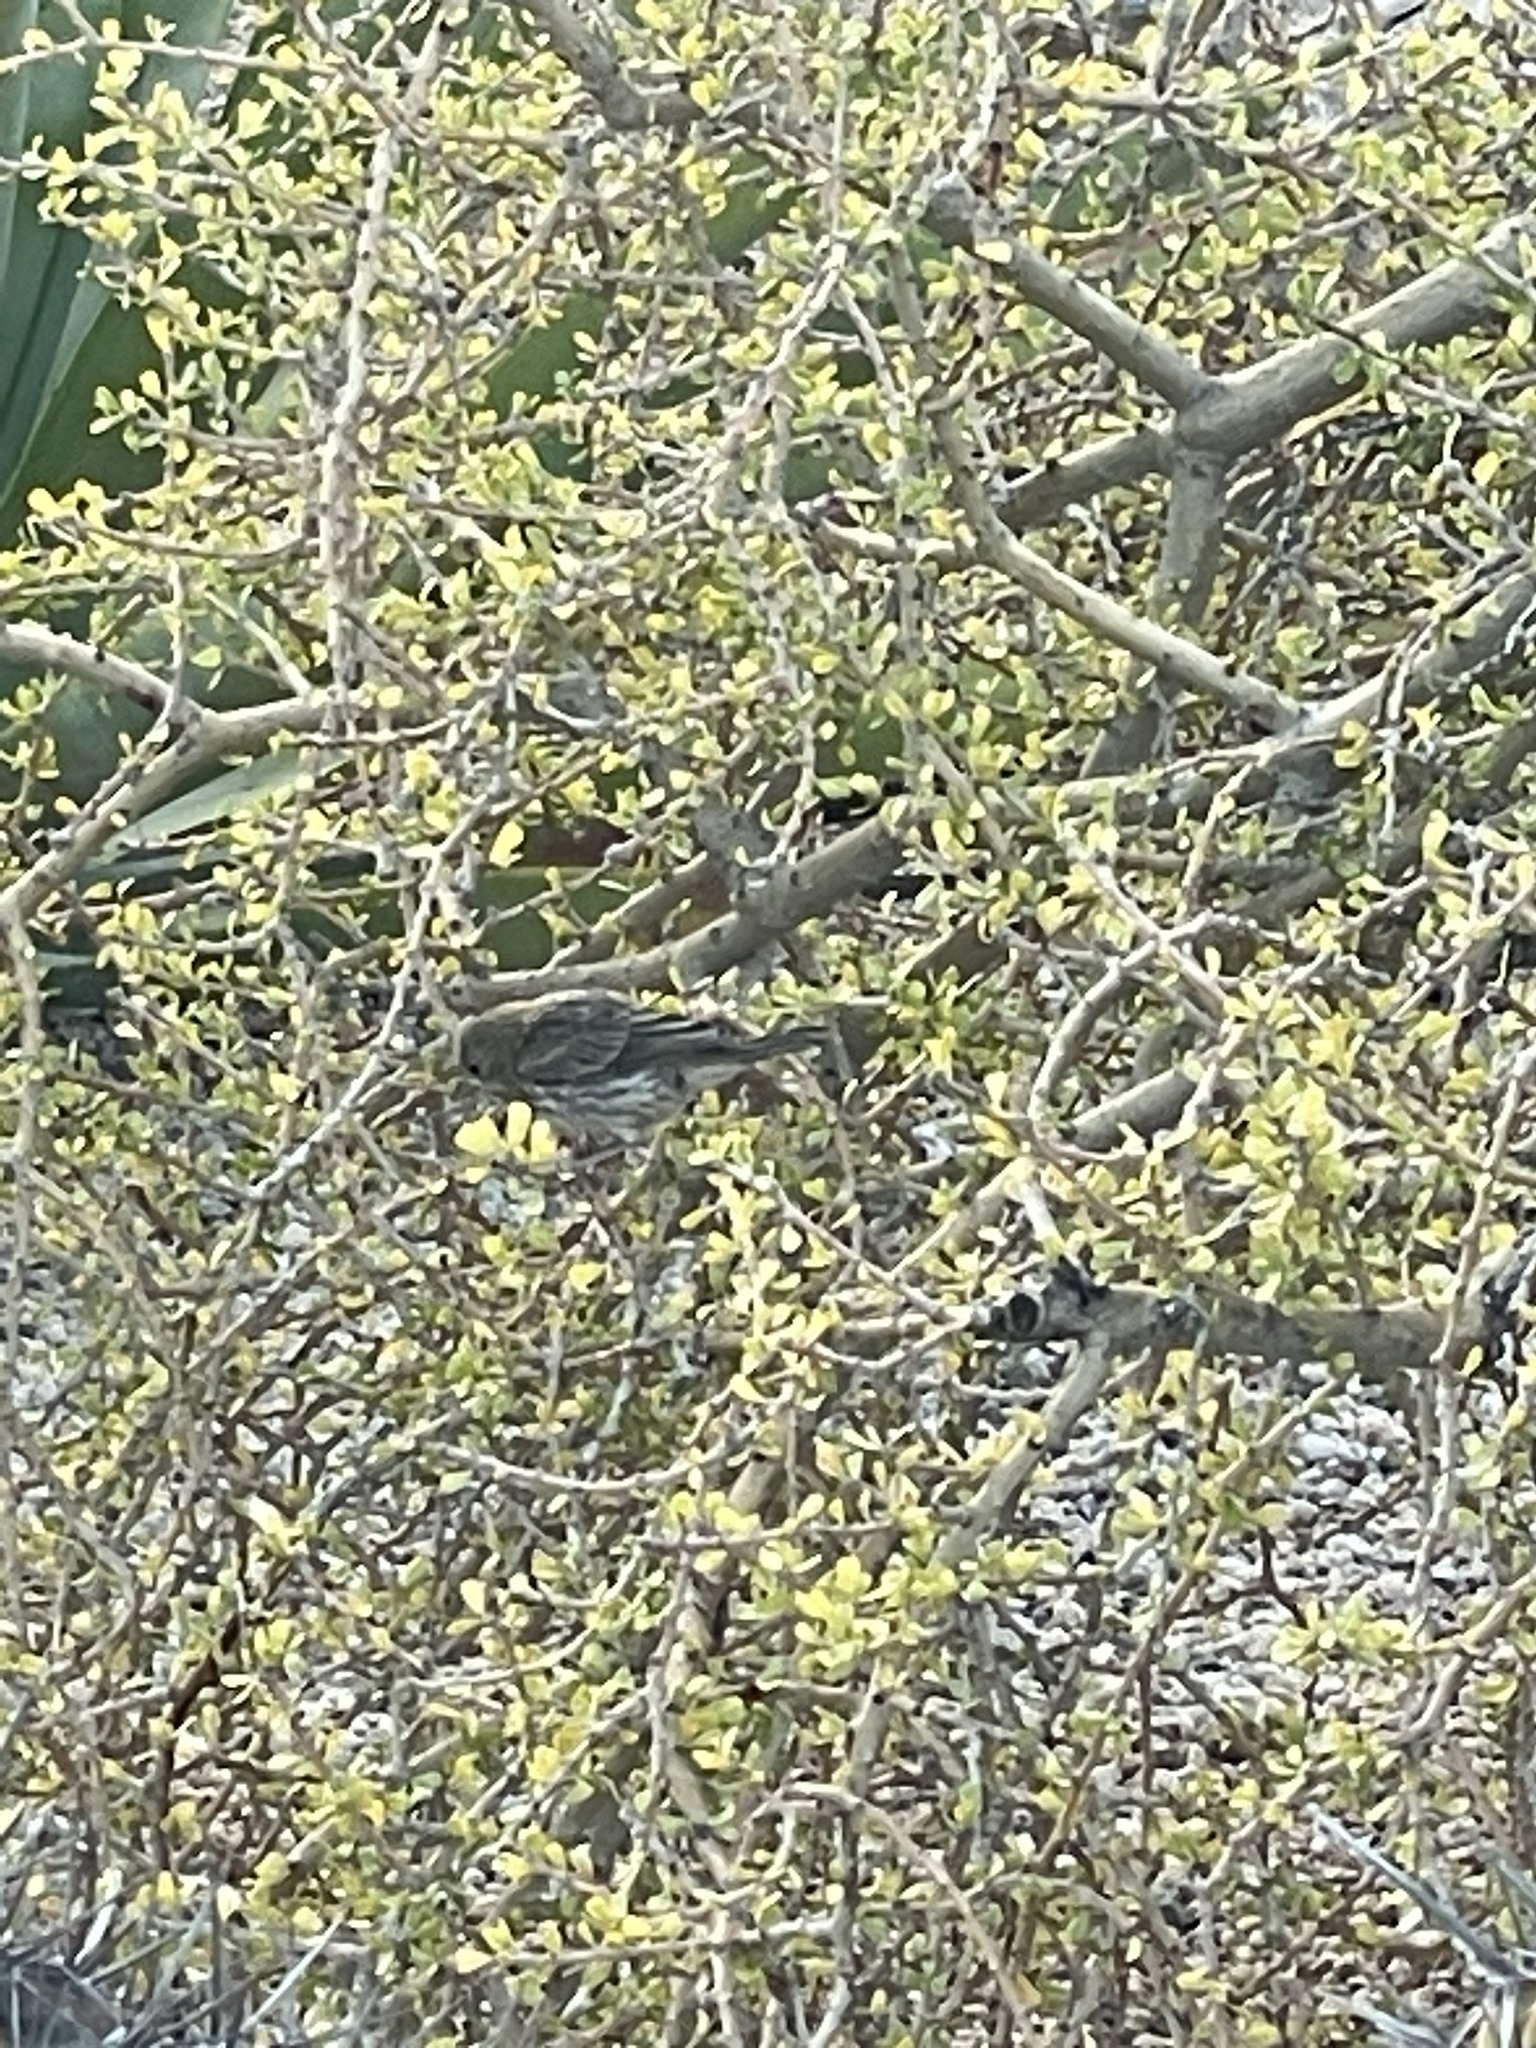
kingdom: Animalia
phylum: Chordata
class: Aves
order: Passeriformes
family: Fringillidae
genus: Haemorhous
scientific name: Haemorhous mexicanus
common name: House finch
